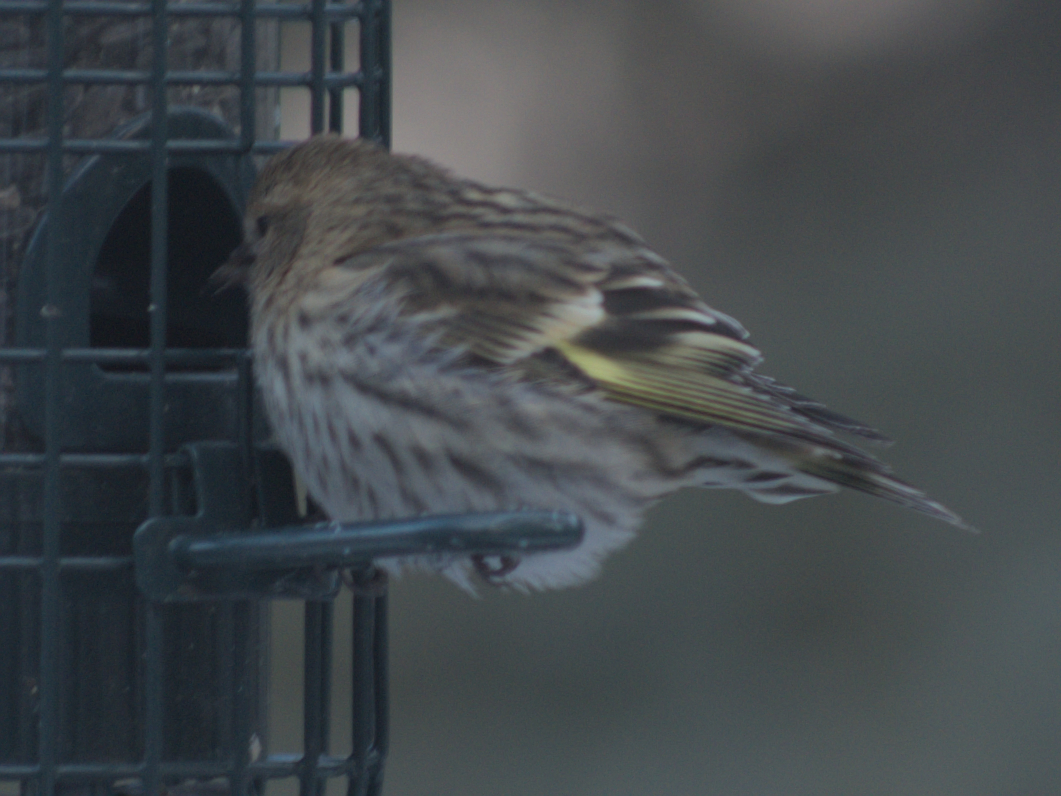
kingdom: Animalia
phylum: Chordata
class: Aves
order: Passeriformes
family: Fringillidae
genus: Spinus
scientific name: Spinus pinus
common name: Pine siskin
